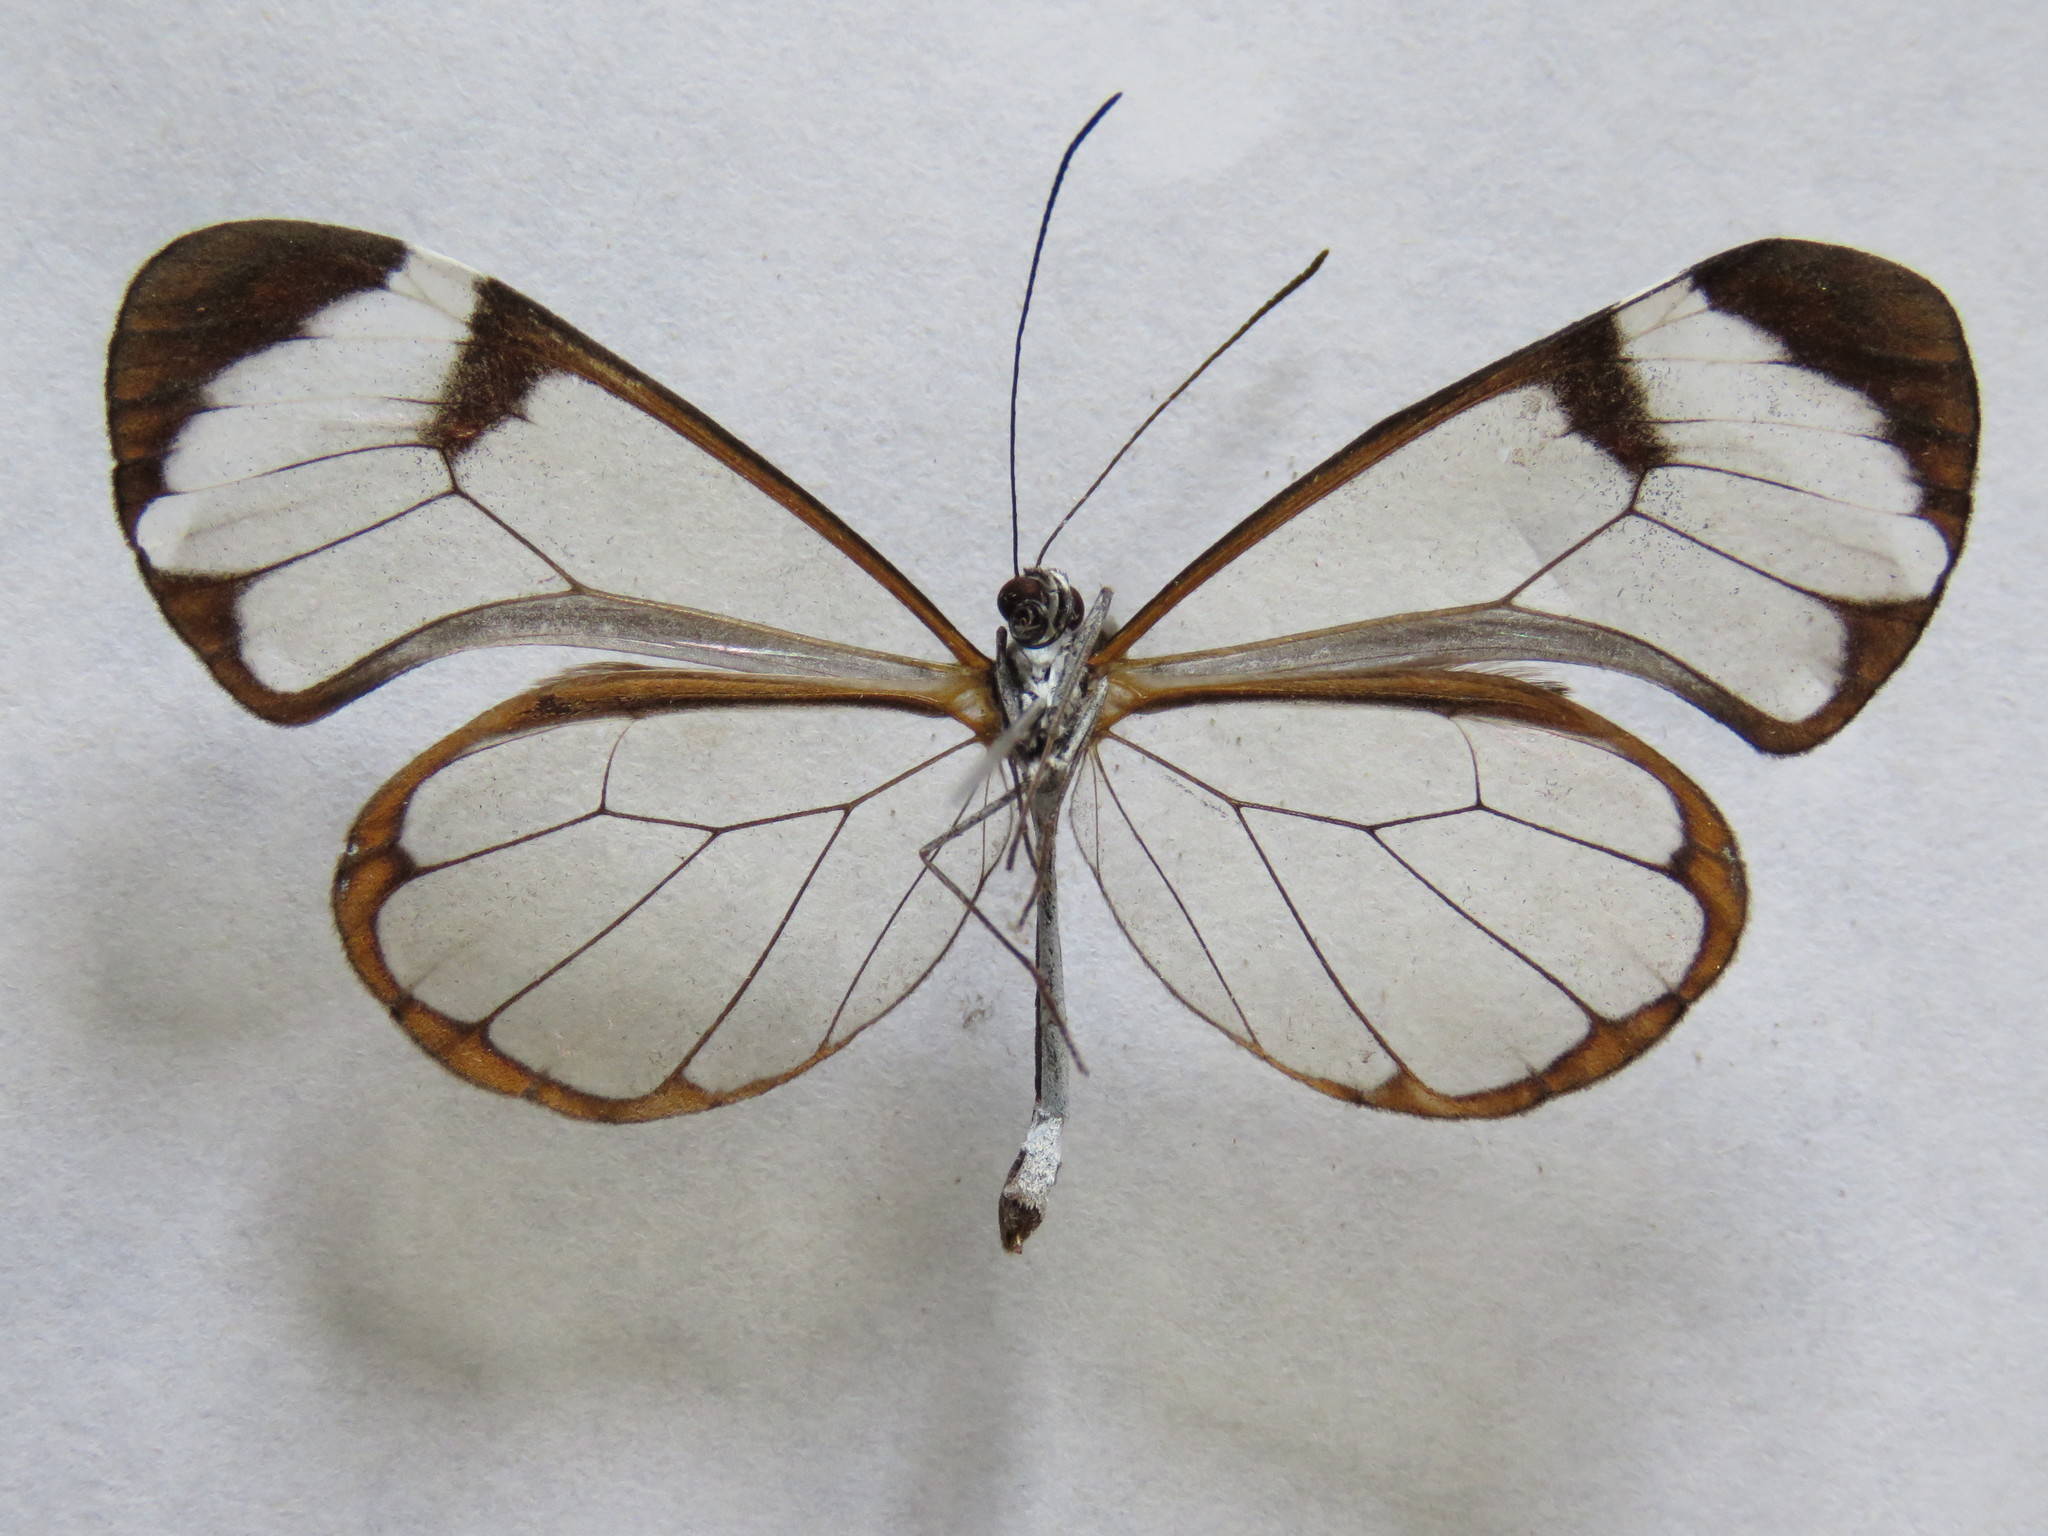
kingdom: Animalia
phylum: Arthropoda
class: Insecta
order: Lepidoptera
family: Nymphalidae
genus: Greta
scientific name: Greta morgane
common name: Thick-tipped greta
